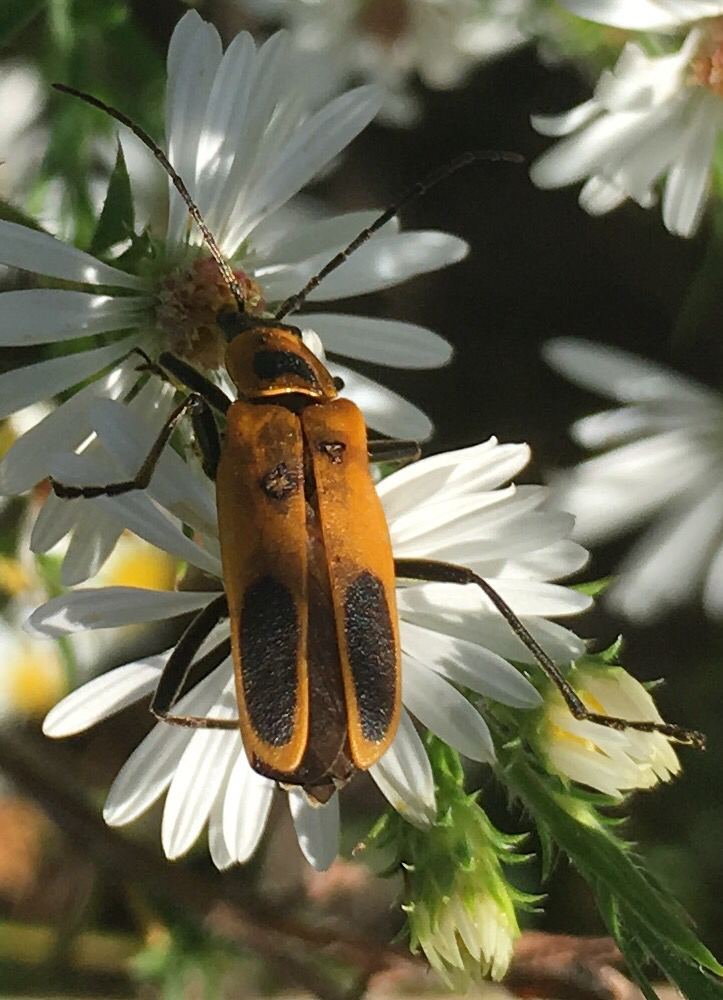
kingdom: Animalia
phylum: Arthropoda
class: Insecta
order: Coleoptera
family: Cantharidae
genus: Chauliognathus
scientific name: Chauliognathus pensylvanicus
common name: Goldenrod soldier beetle
